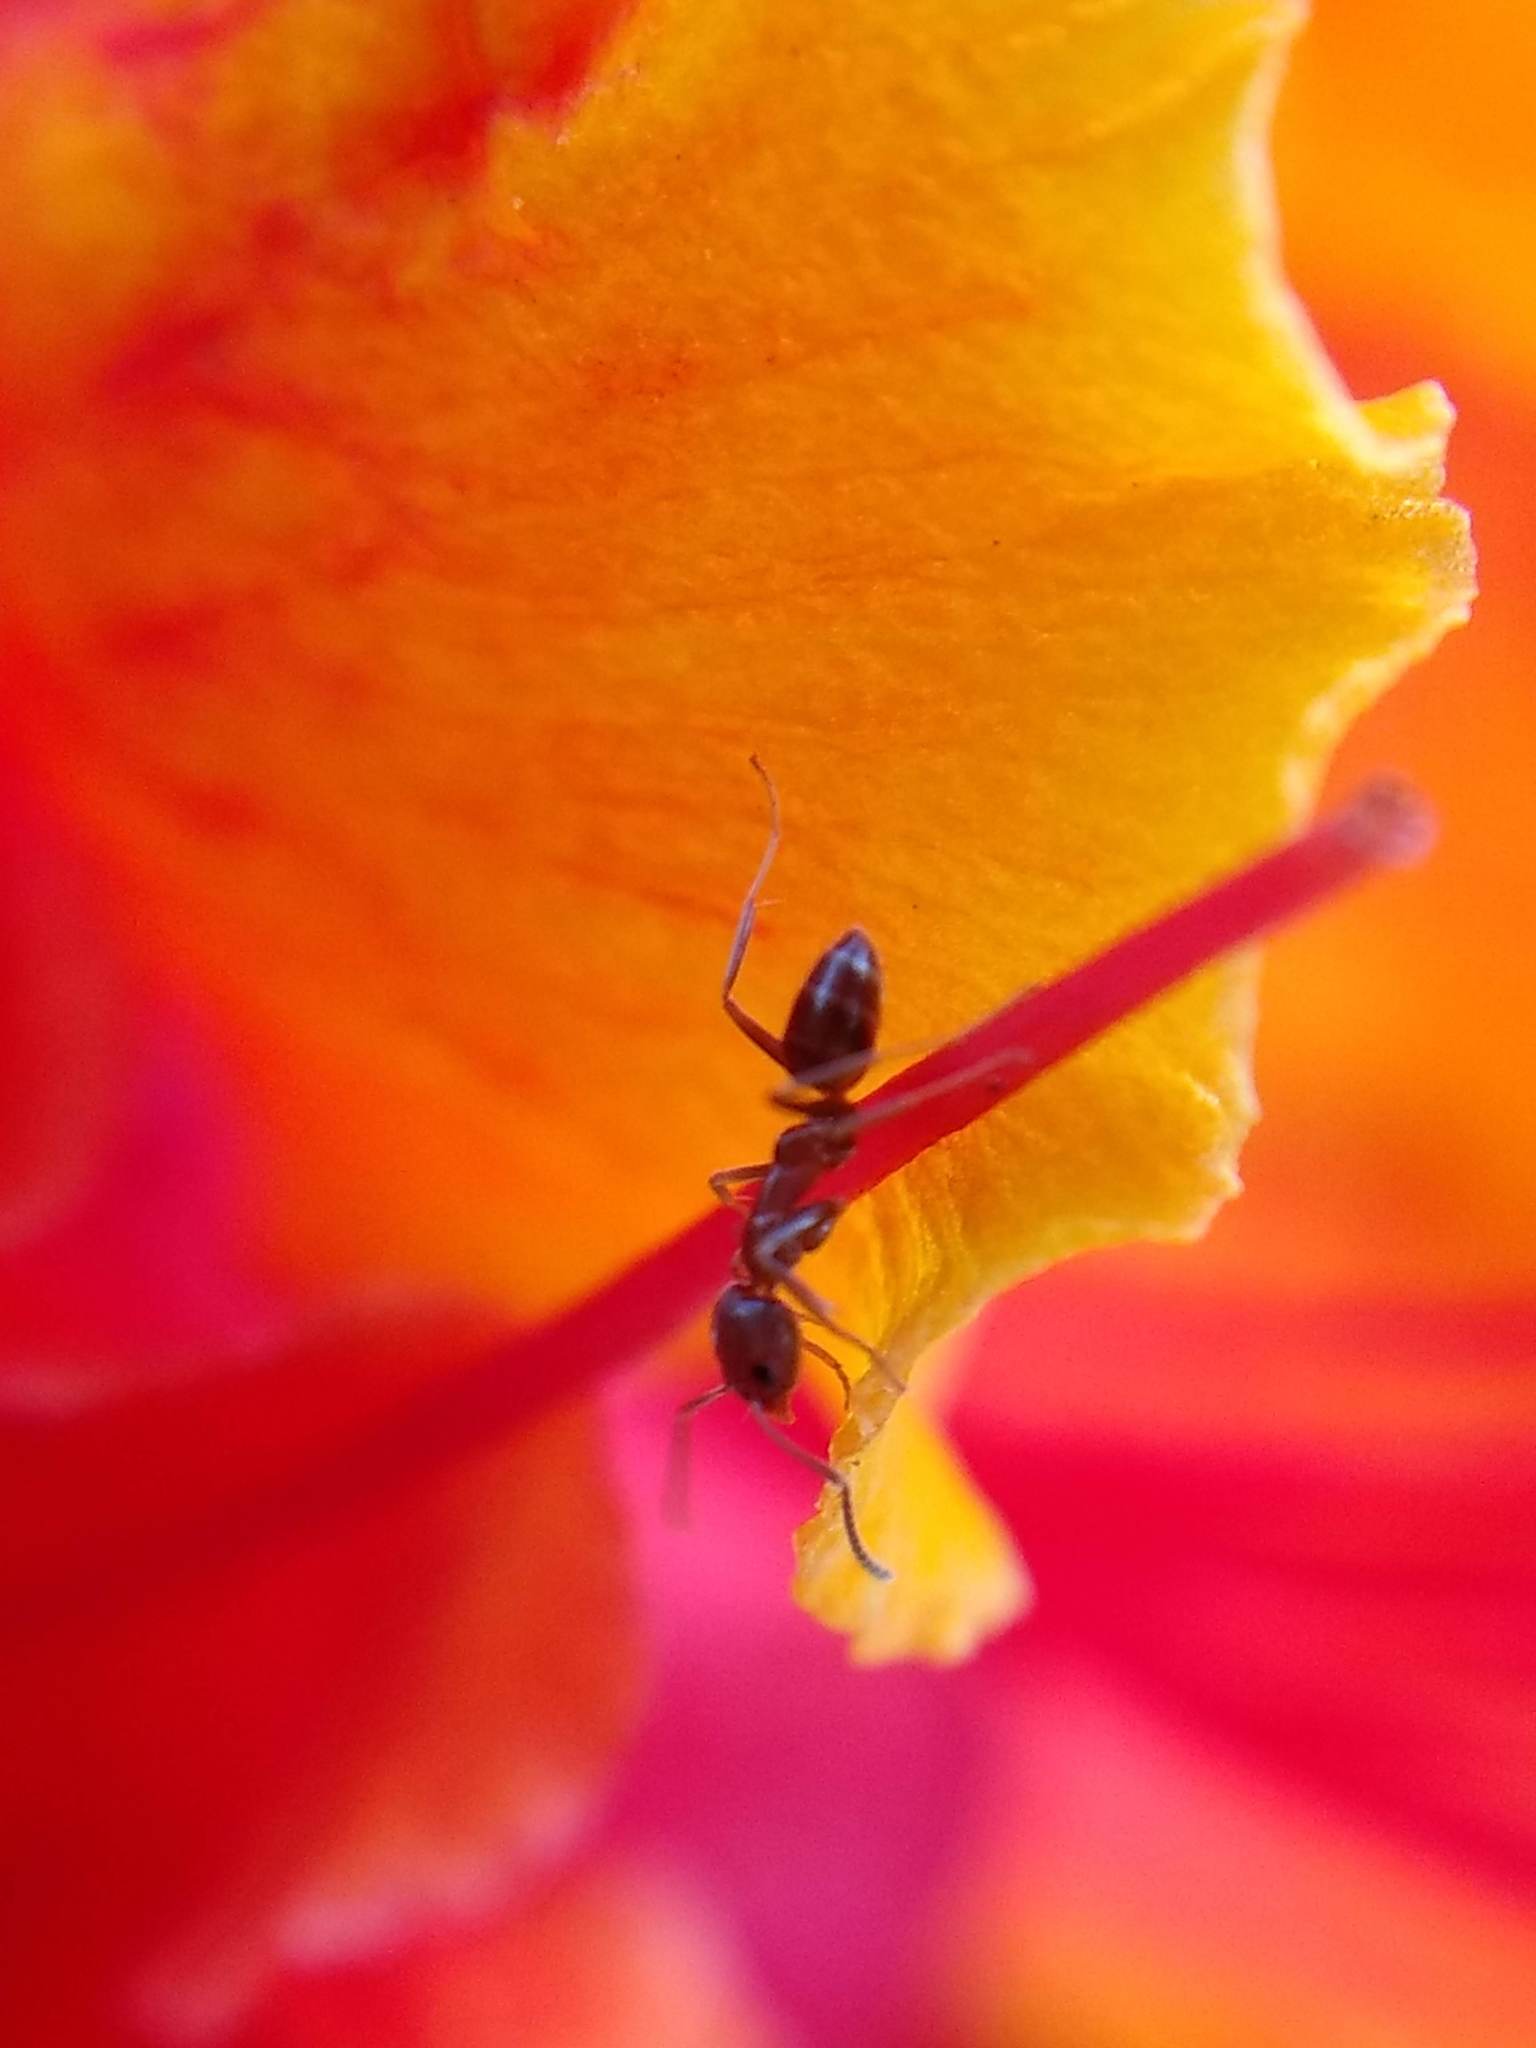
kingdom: Animalia
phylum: Arthropoda
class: Insecta
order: Hymenoptera
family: Formicidae
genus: Linepithema
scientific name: Linepithema humile
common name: Argentine ant
